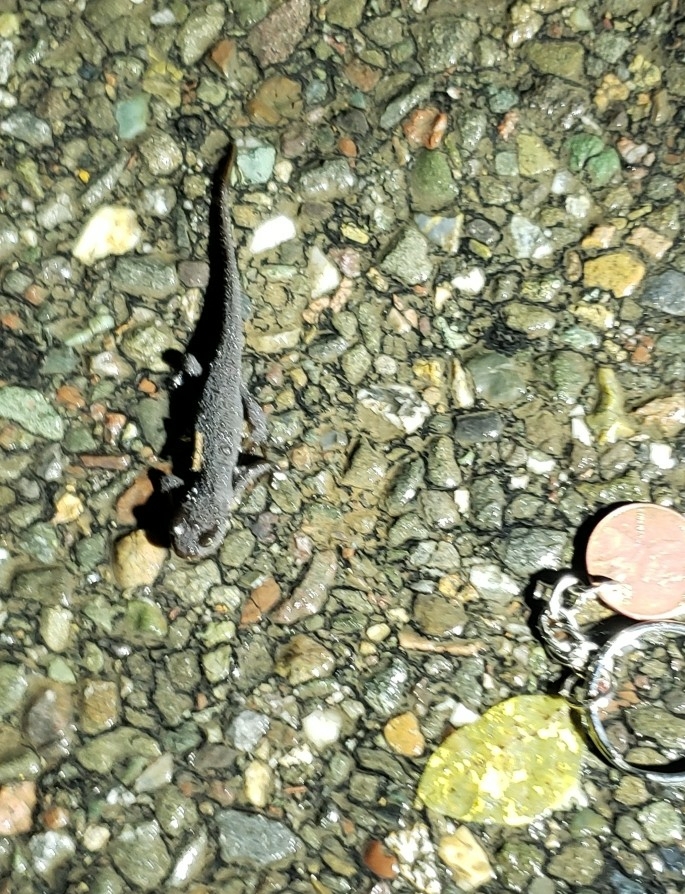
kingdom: Animalia
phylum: Chordata
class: Amphibia
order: Caudata
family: Salamandridae
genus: Taricha
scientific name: Taricha granulosa
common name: Roughskin newt
